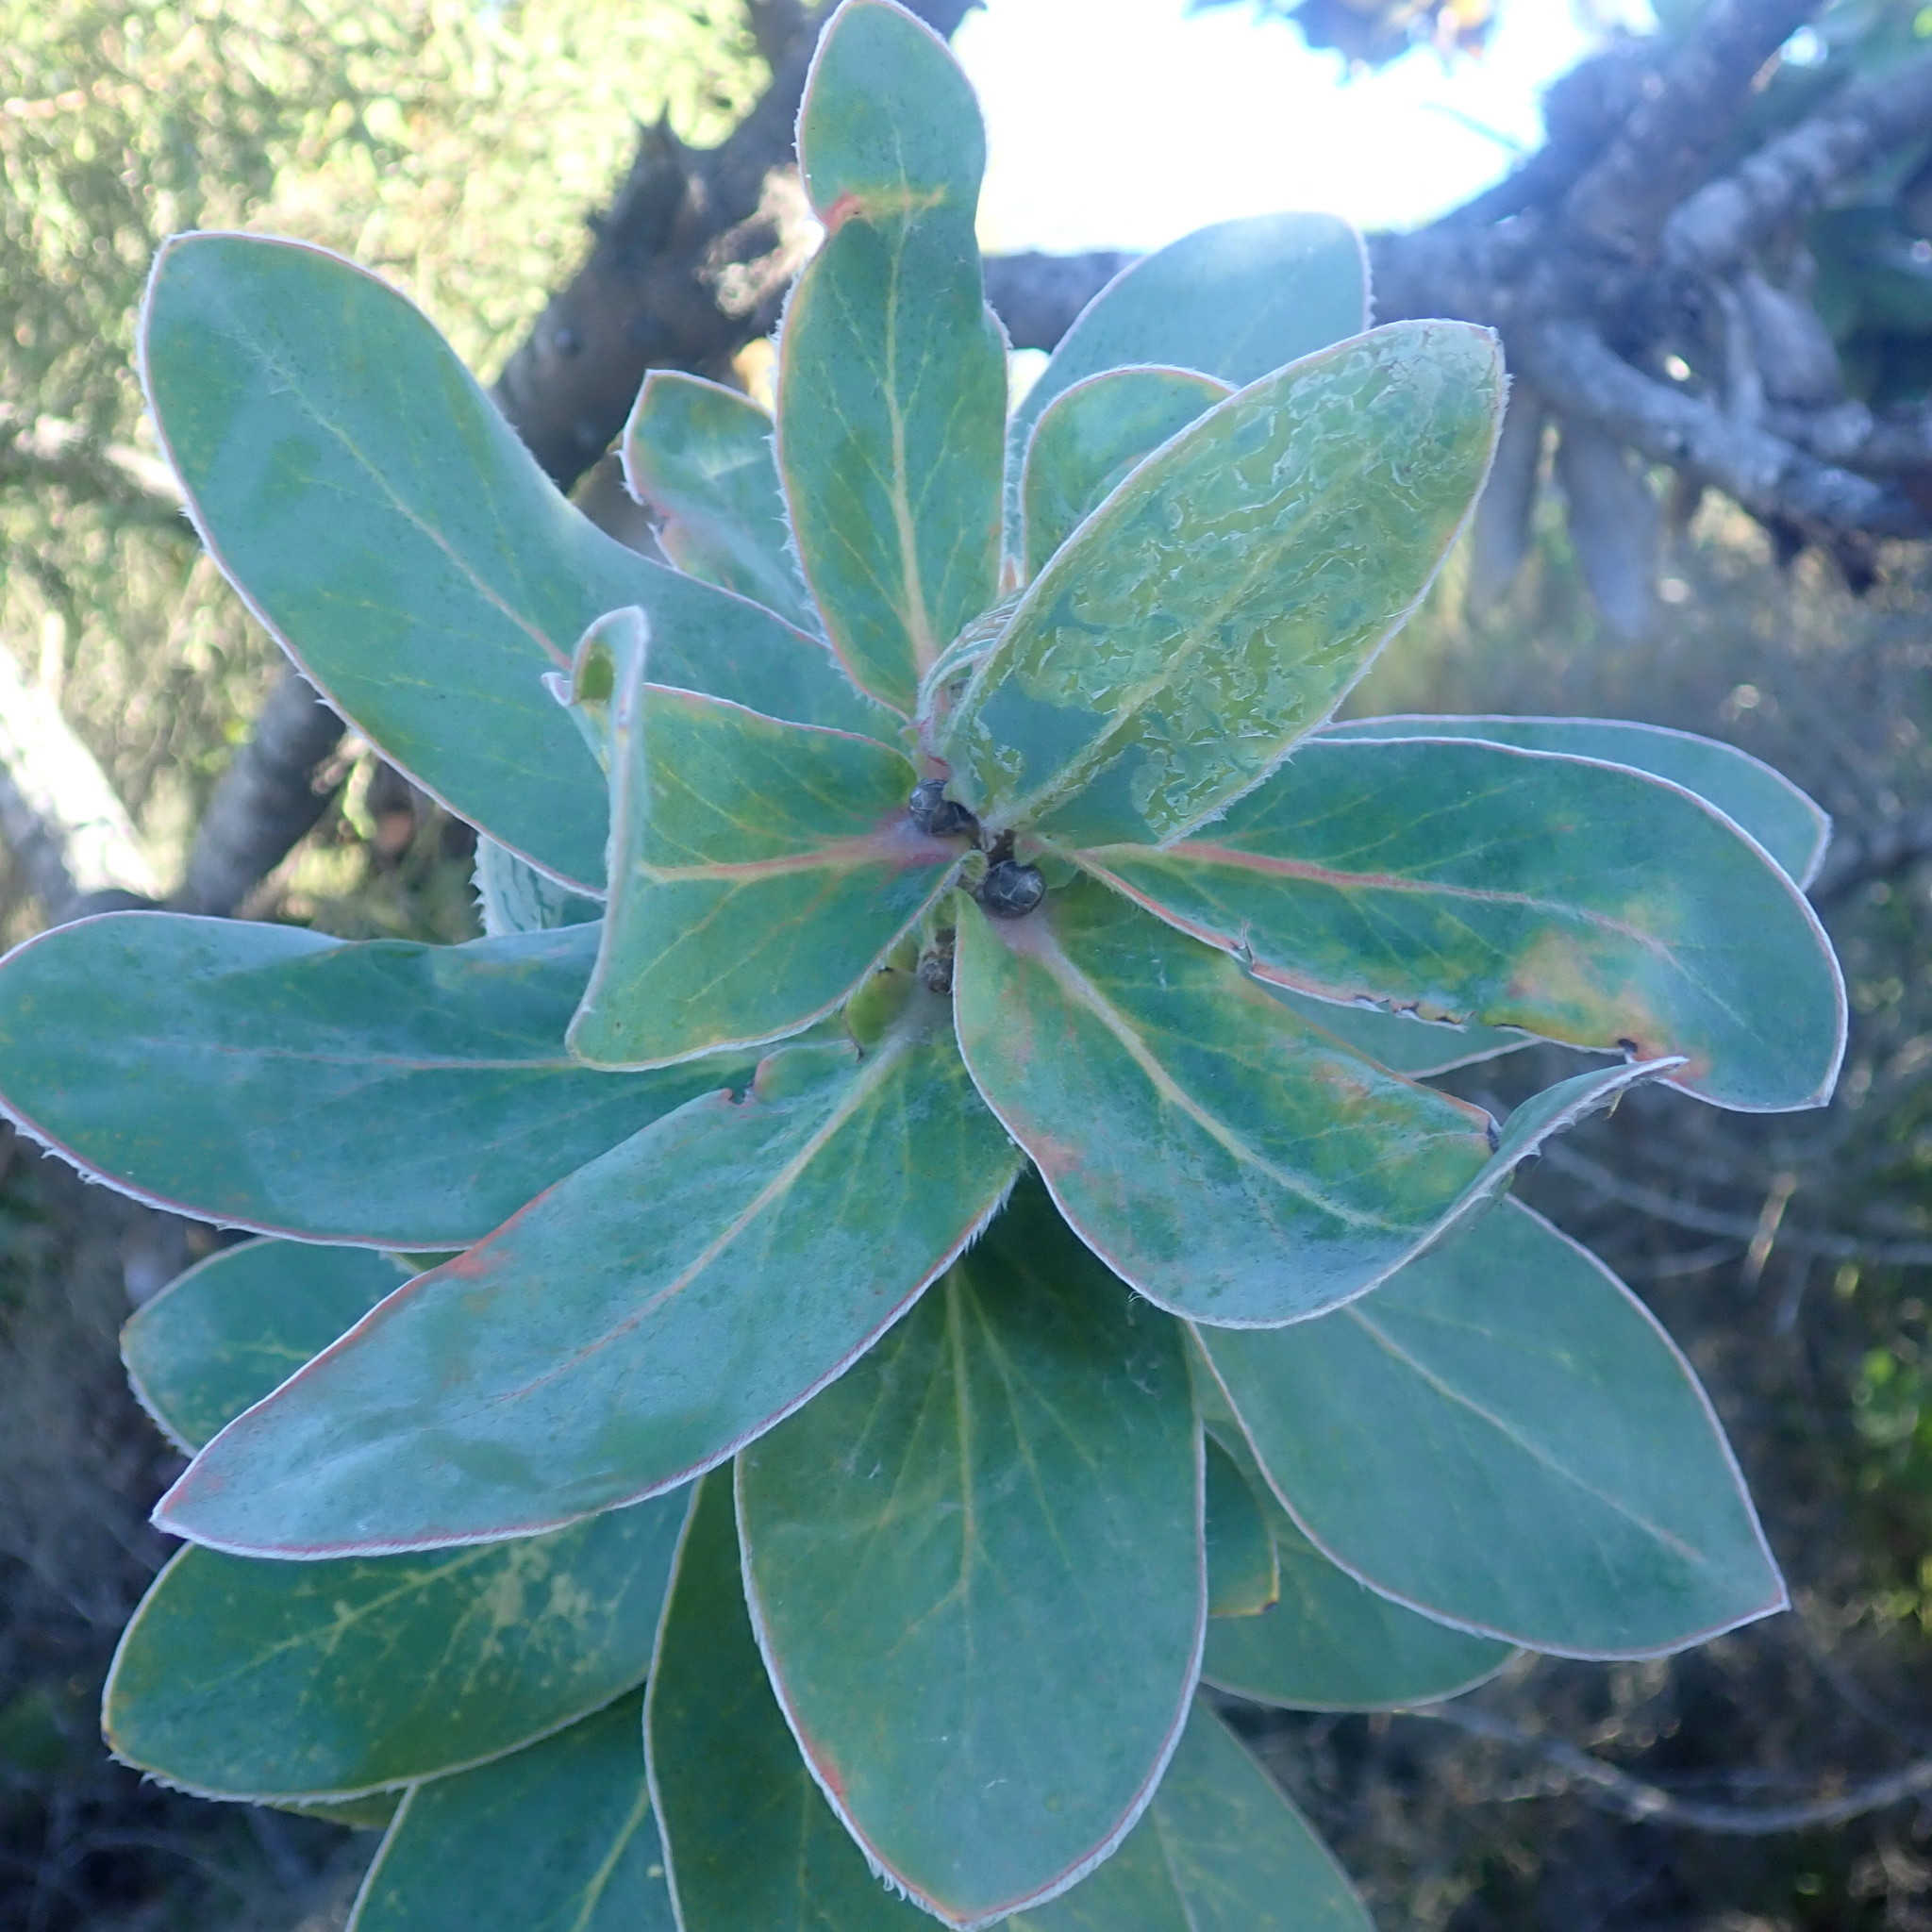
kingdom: Plantae
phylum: Tracheophyta
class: Magnoliopsida
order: Proteales
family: Proteaceae
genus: Protea
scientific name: Protea nitida
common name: Tree protea
